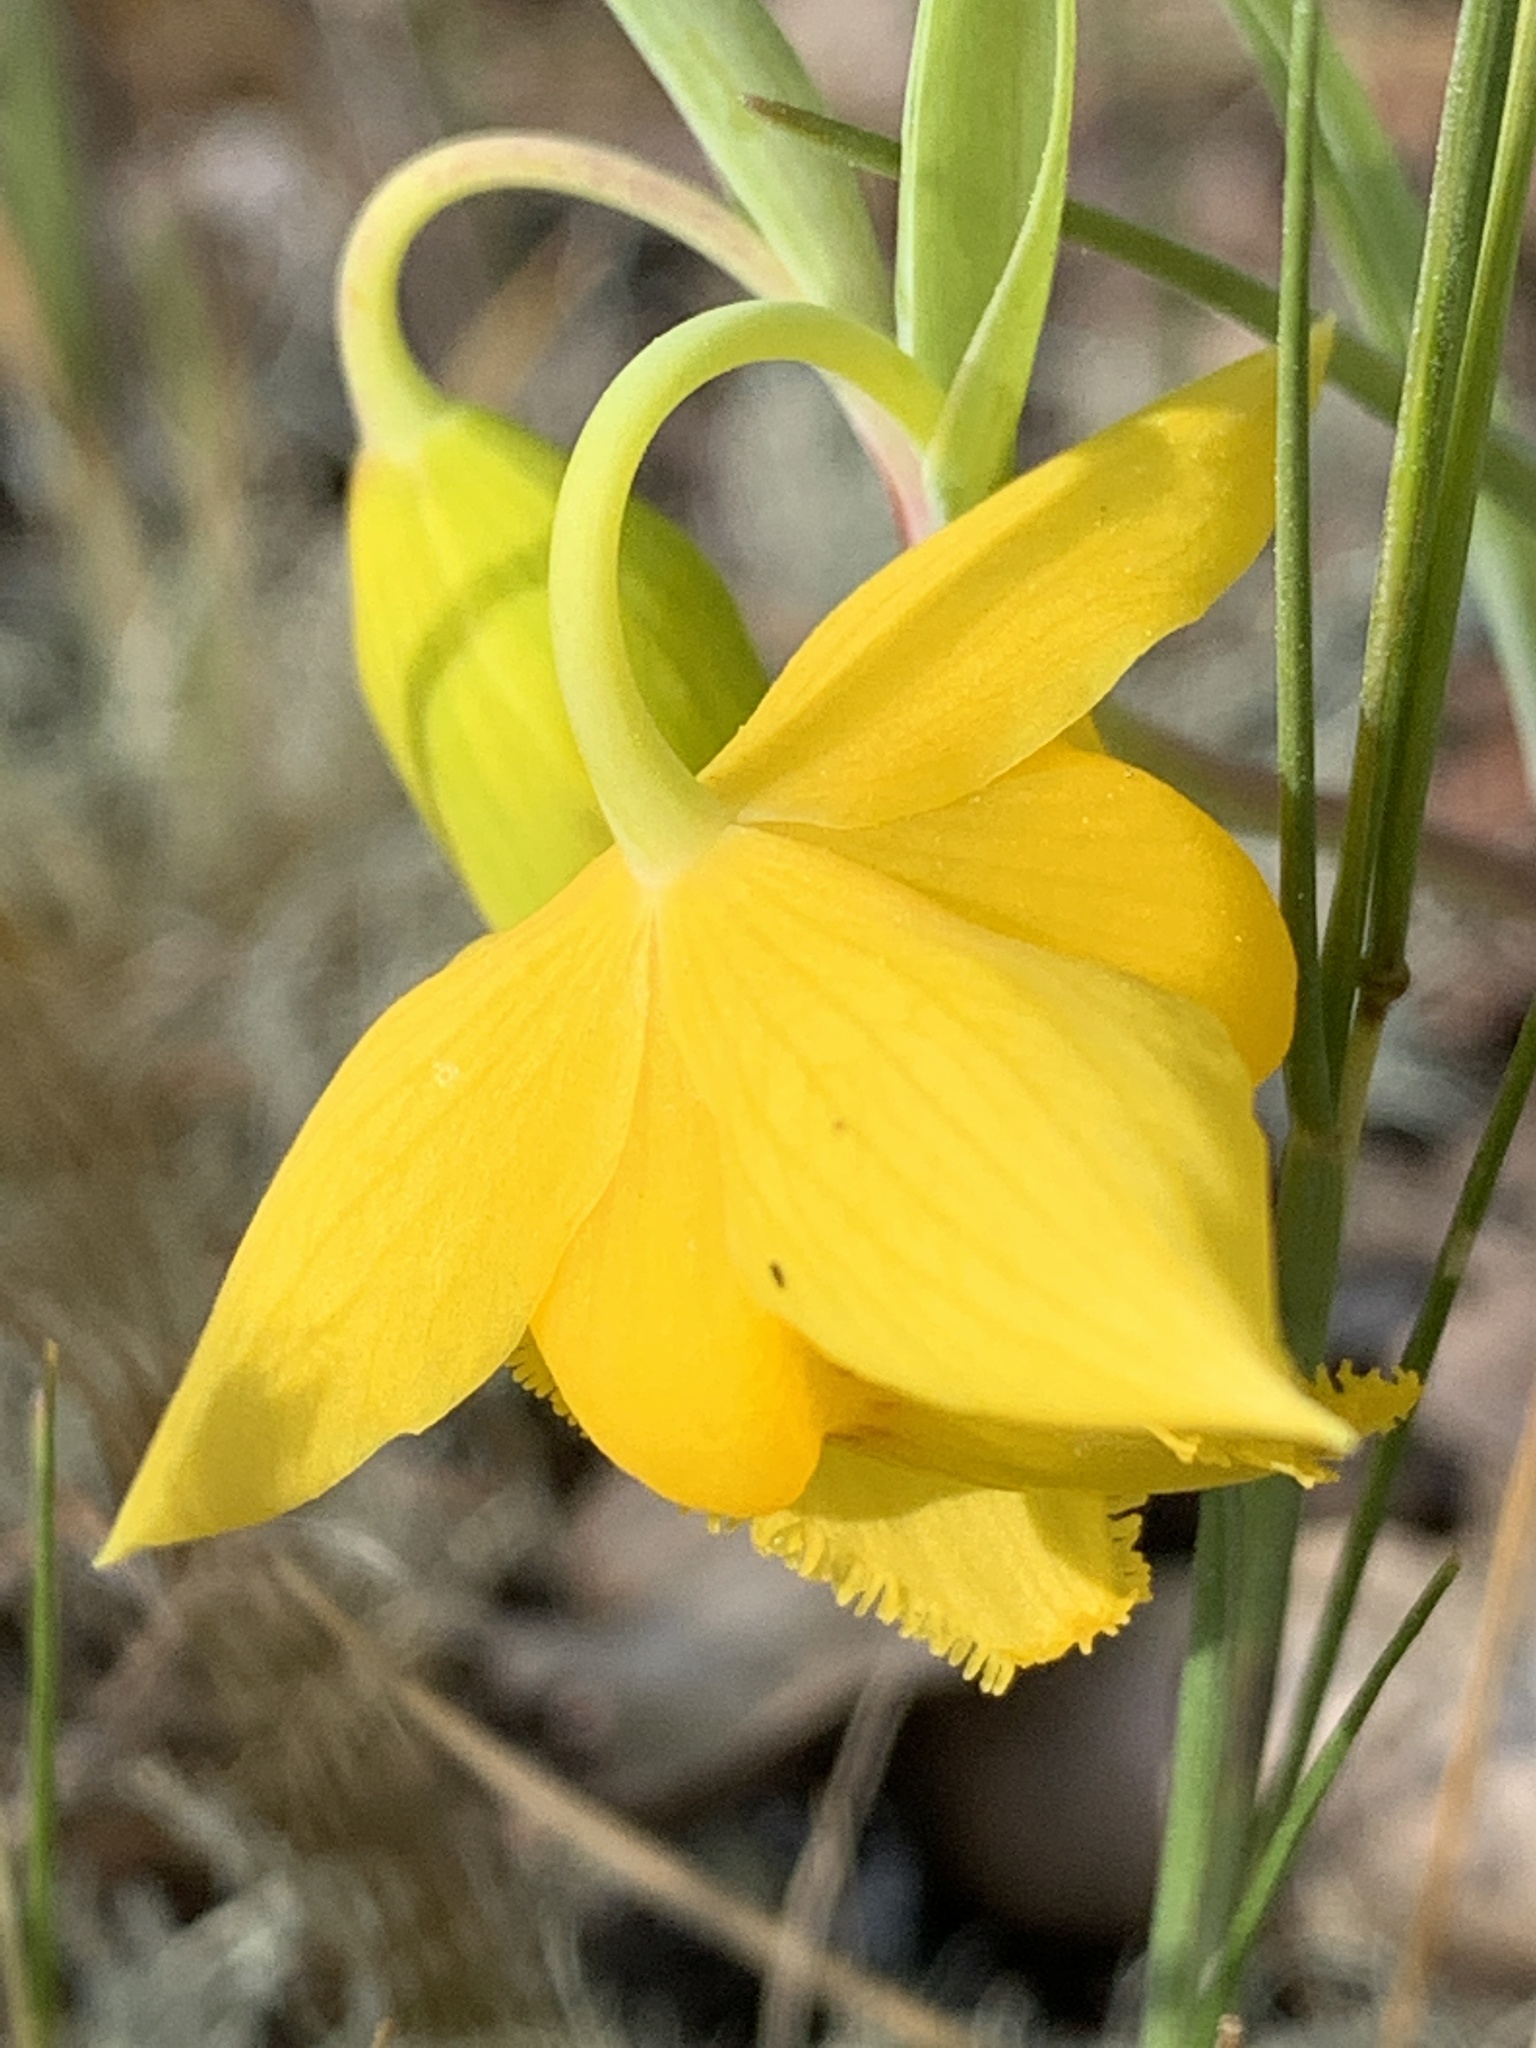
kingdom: Plantae
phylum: Tracheophyta
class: Liliopsida
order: Liliales
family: Liliaceae
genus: Calochortus
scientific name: Calochortus amabilis
